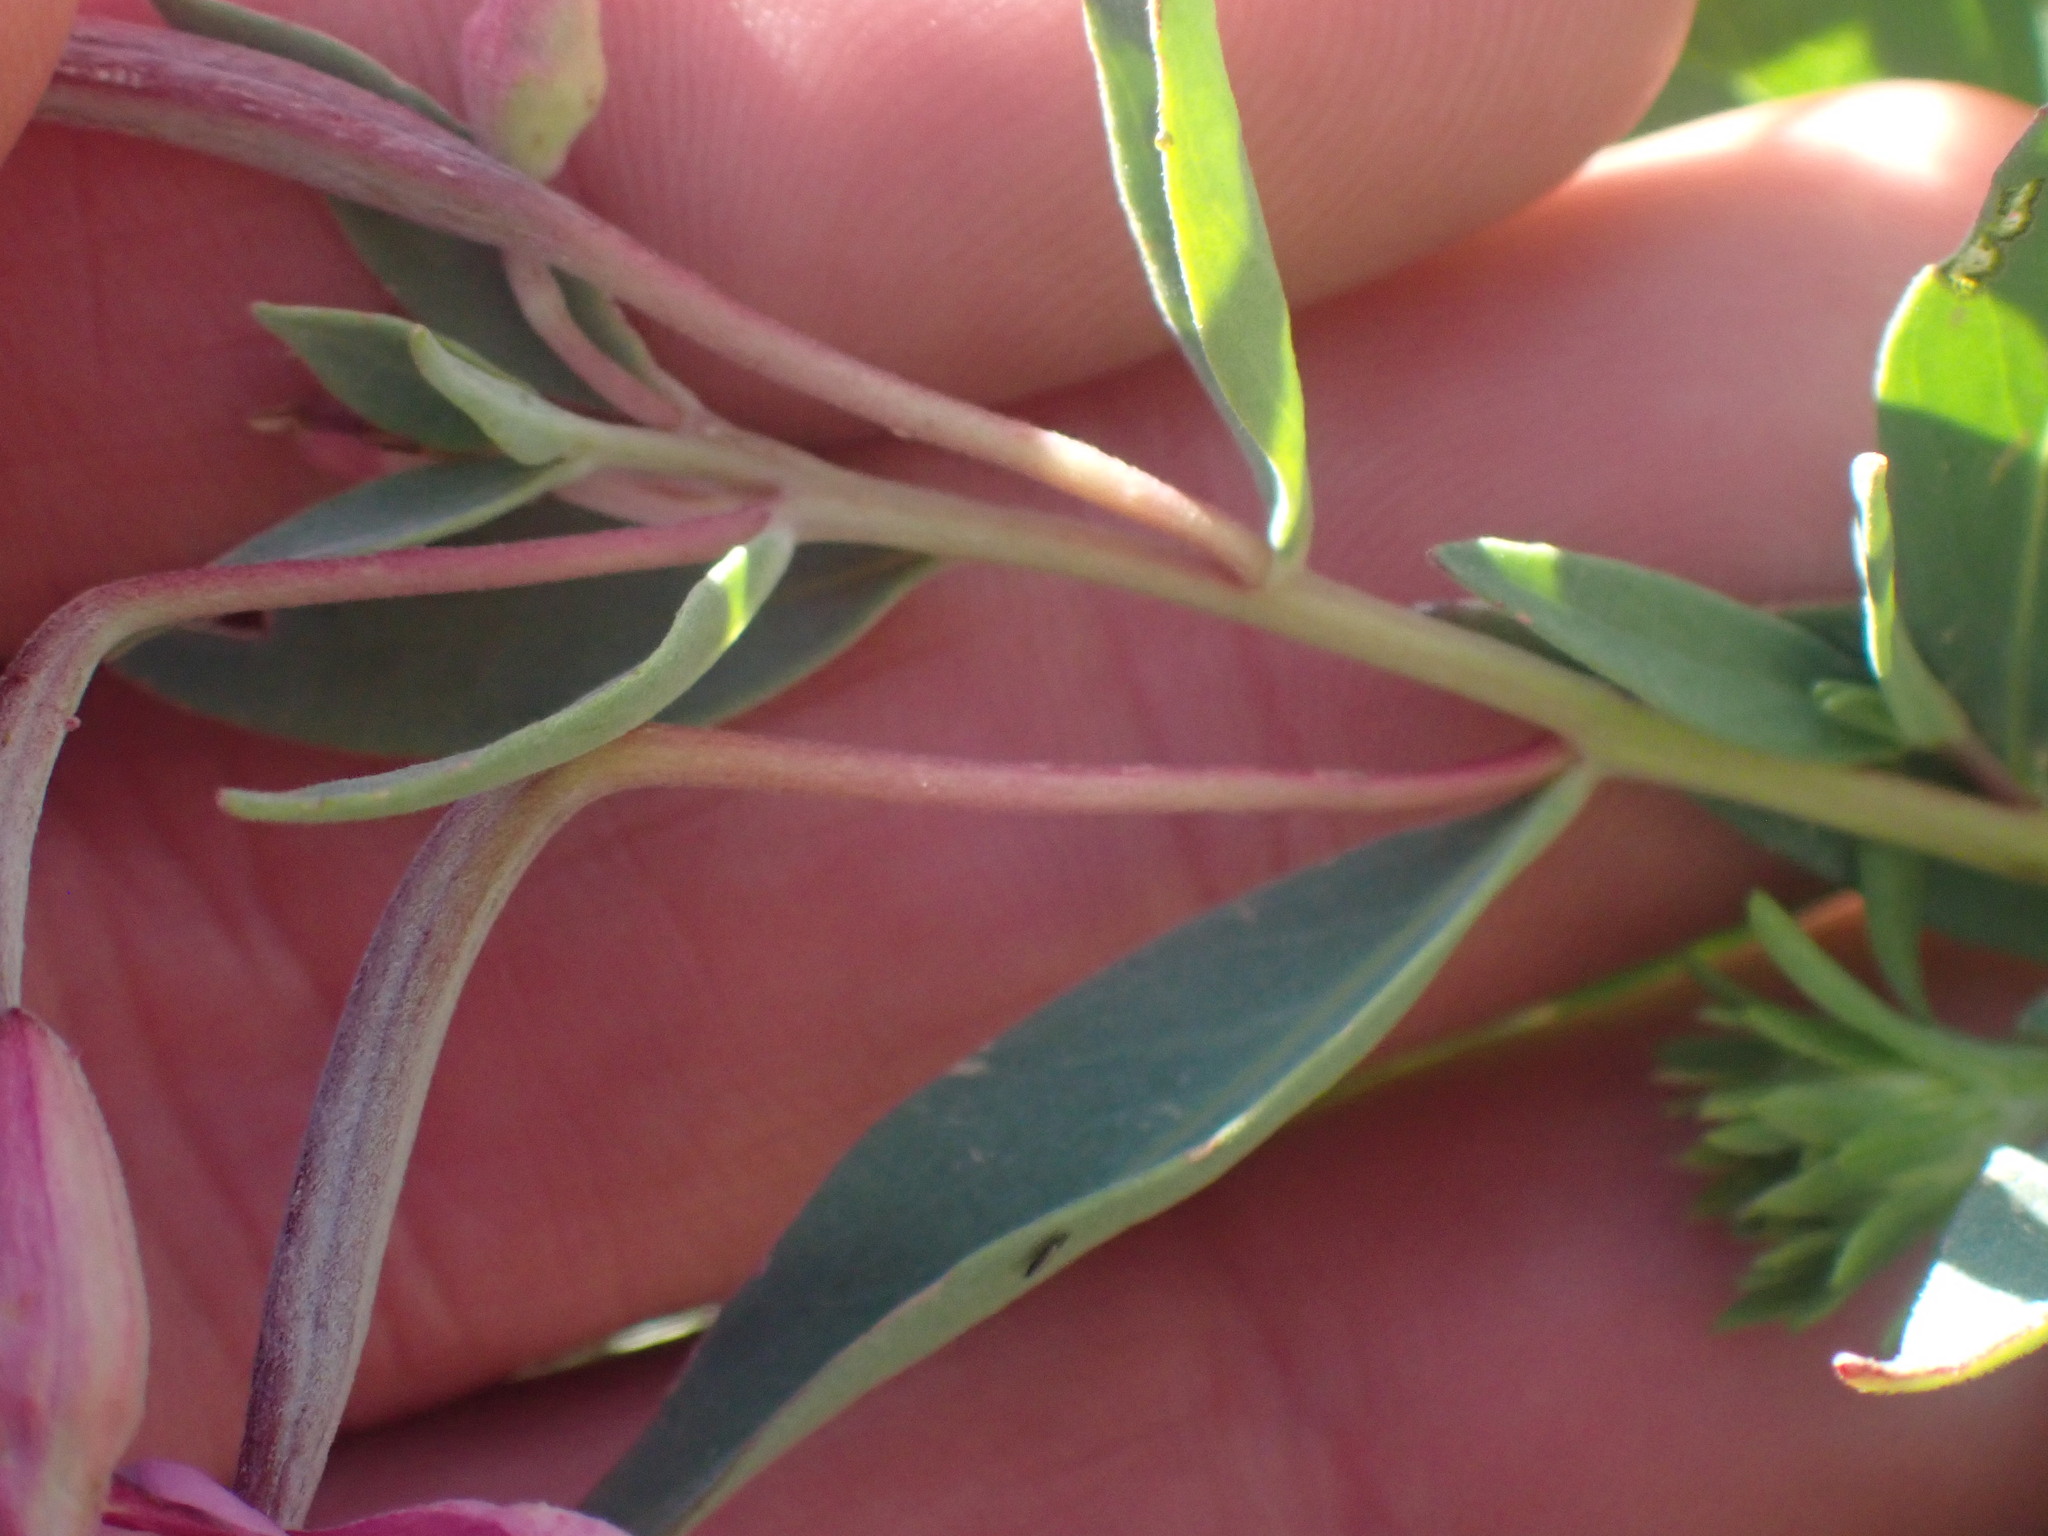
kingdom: Plantae
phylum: Tracheophyta
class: Magnoliopsida
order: Myrtales
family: Onagraceae
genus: Chamaenerion
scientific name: Chamaenerion latifolium
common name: Dwarf fireweed
